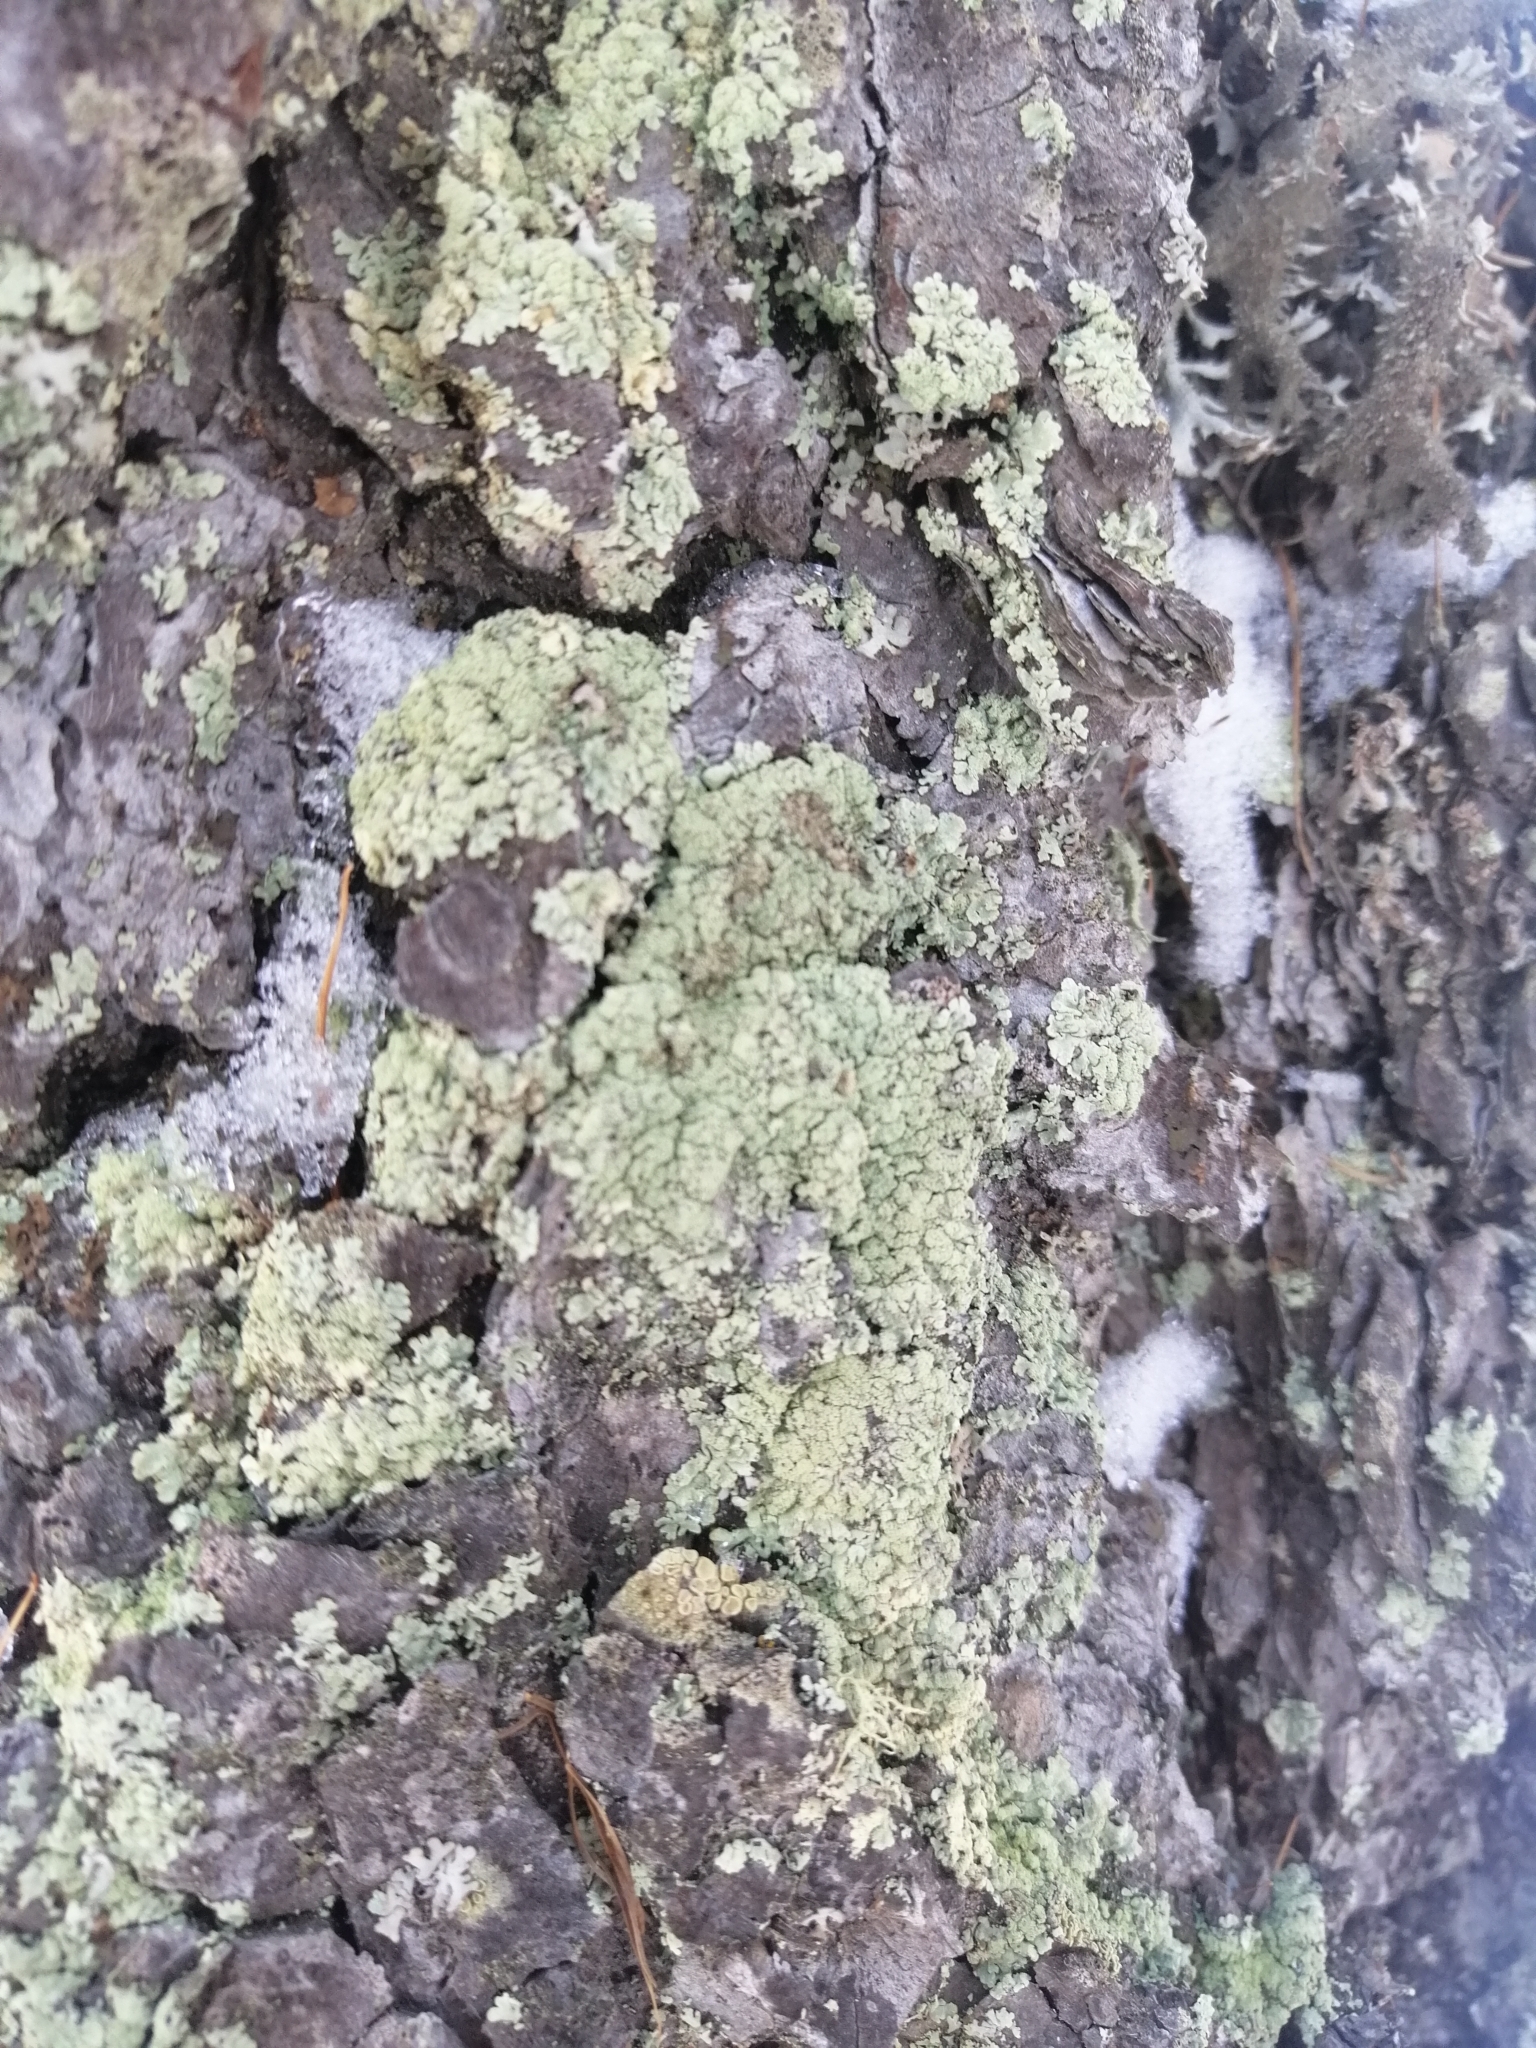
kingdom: Fungi
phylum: Ascomycota
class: Lecanoromycetes
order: Lecanorales
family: Parmeliaceae
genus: Parmeliopsis
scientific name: Parmeliopsis ambigua
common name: Green starburst lichen
